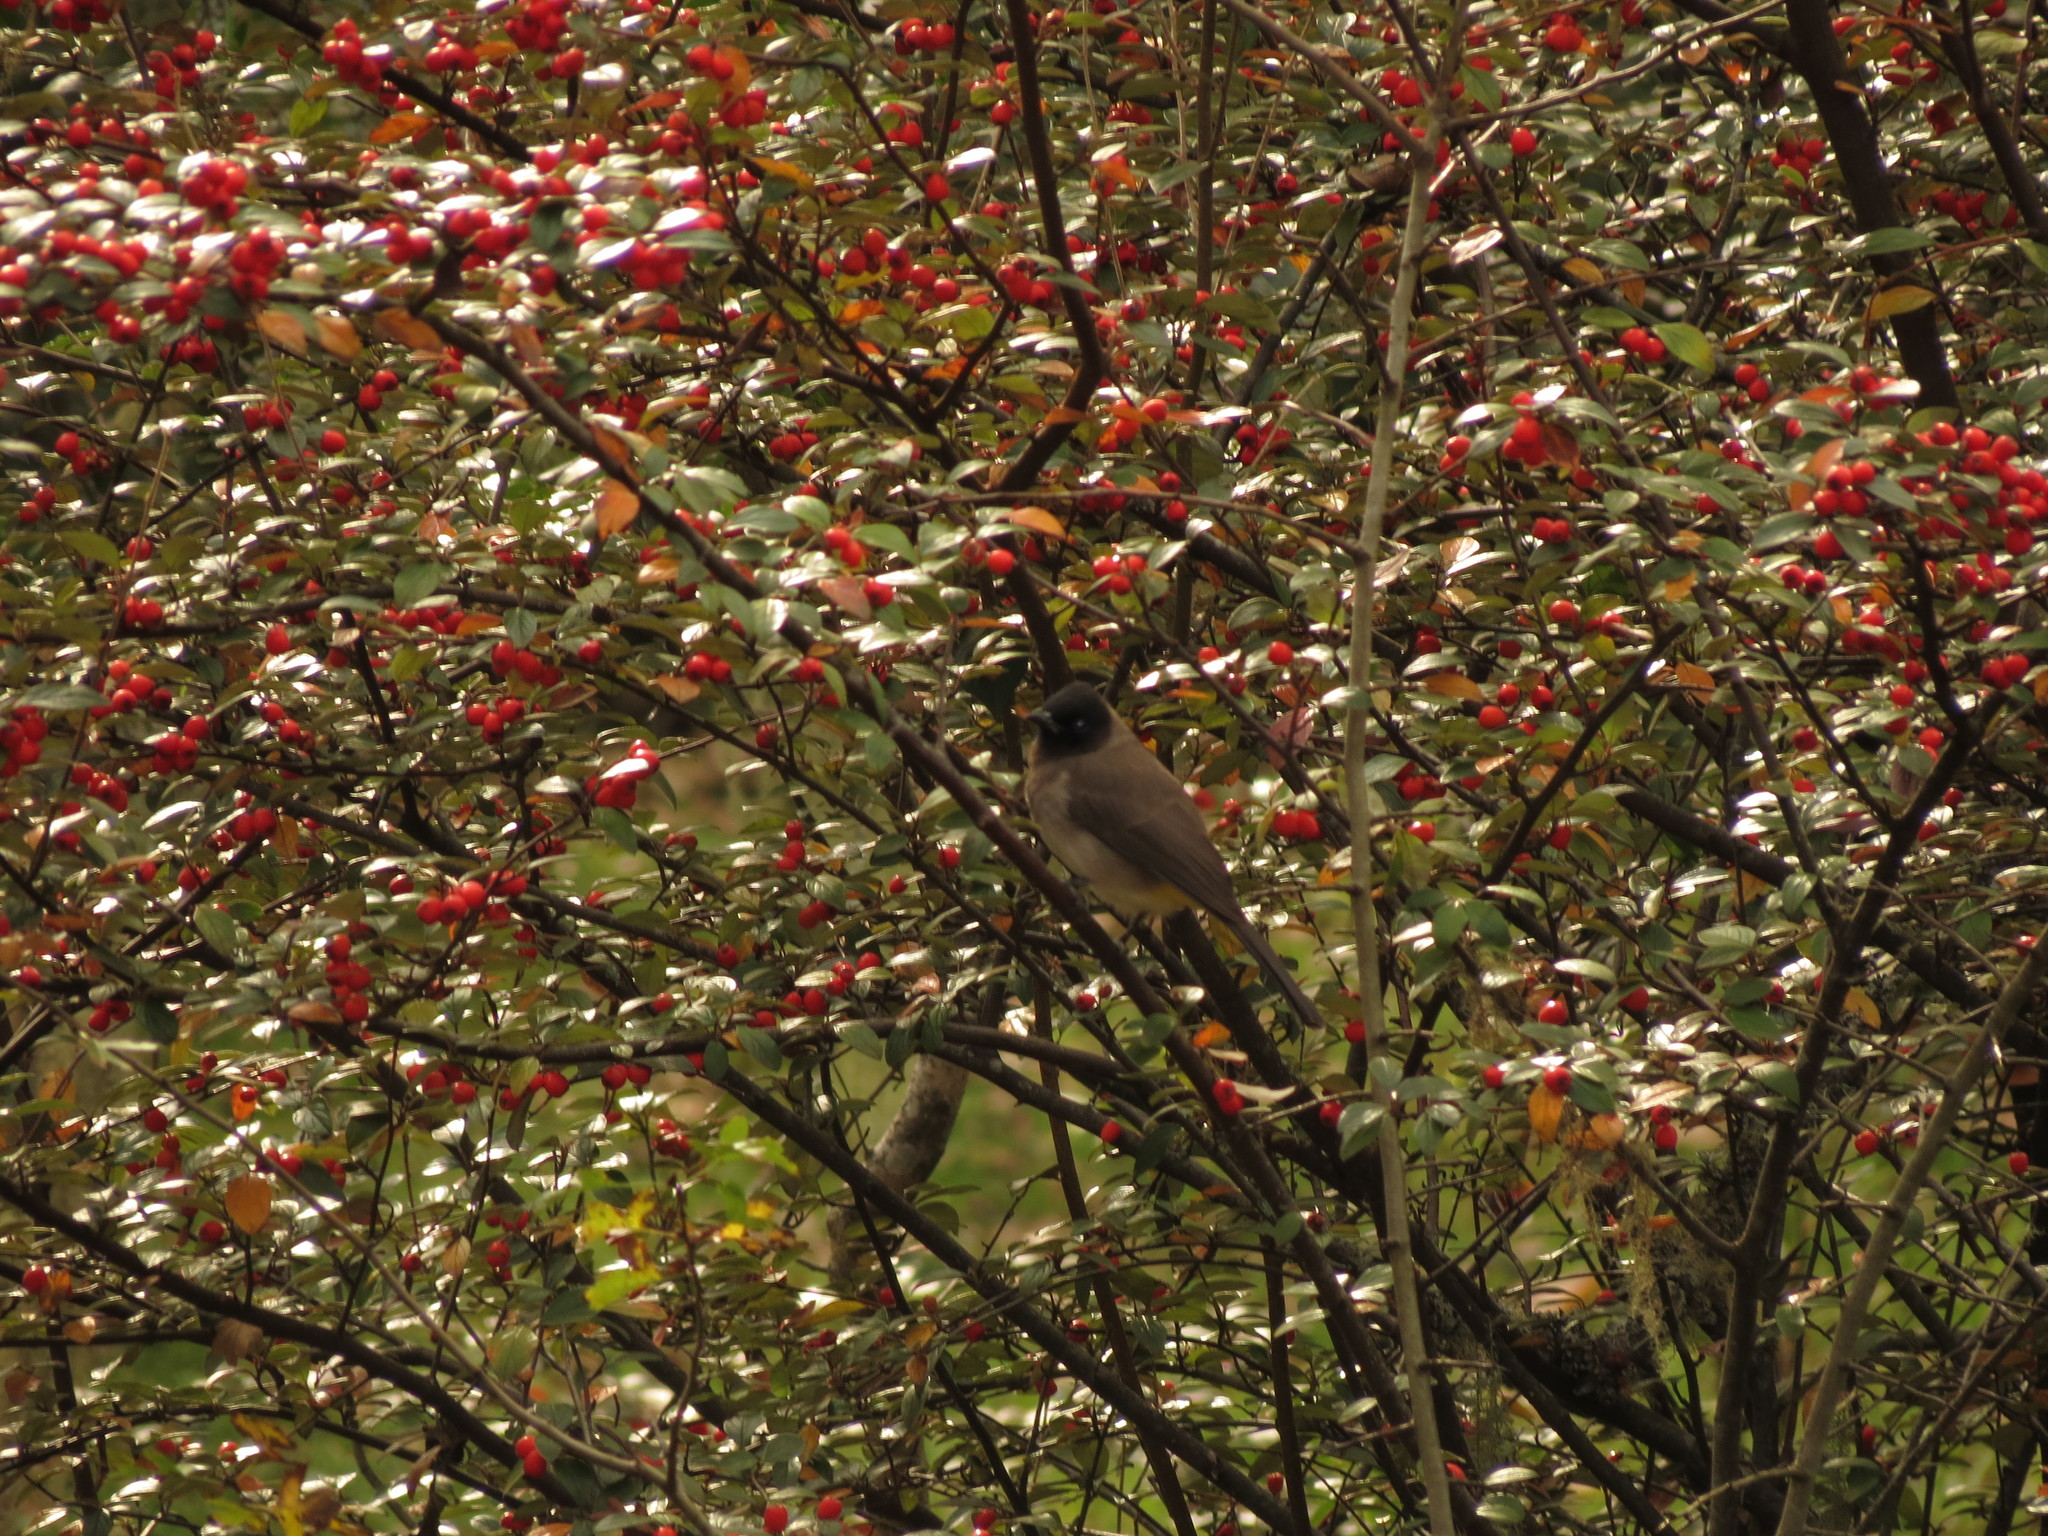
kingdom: Animalia
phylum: Chordata
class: Aves
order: Passeriformes
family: Pycnonotidae
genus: Pycnonotus
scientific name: Pycnonotus barbatus
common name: Common bulbul
